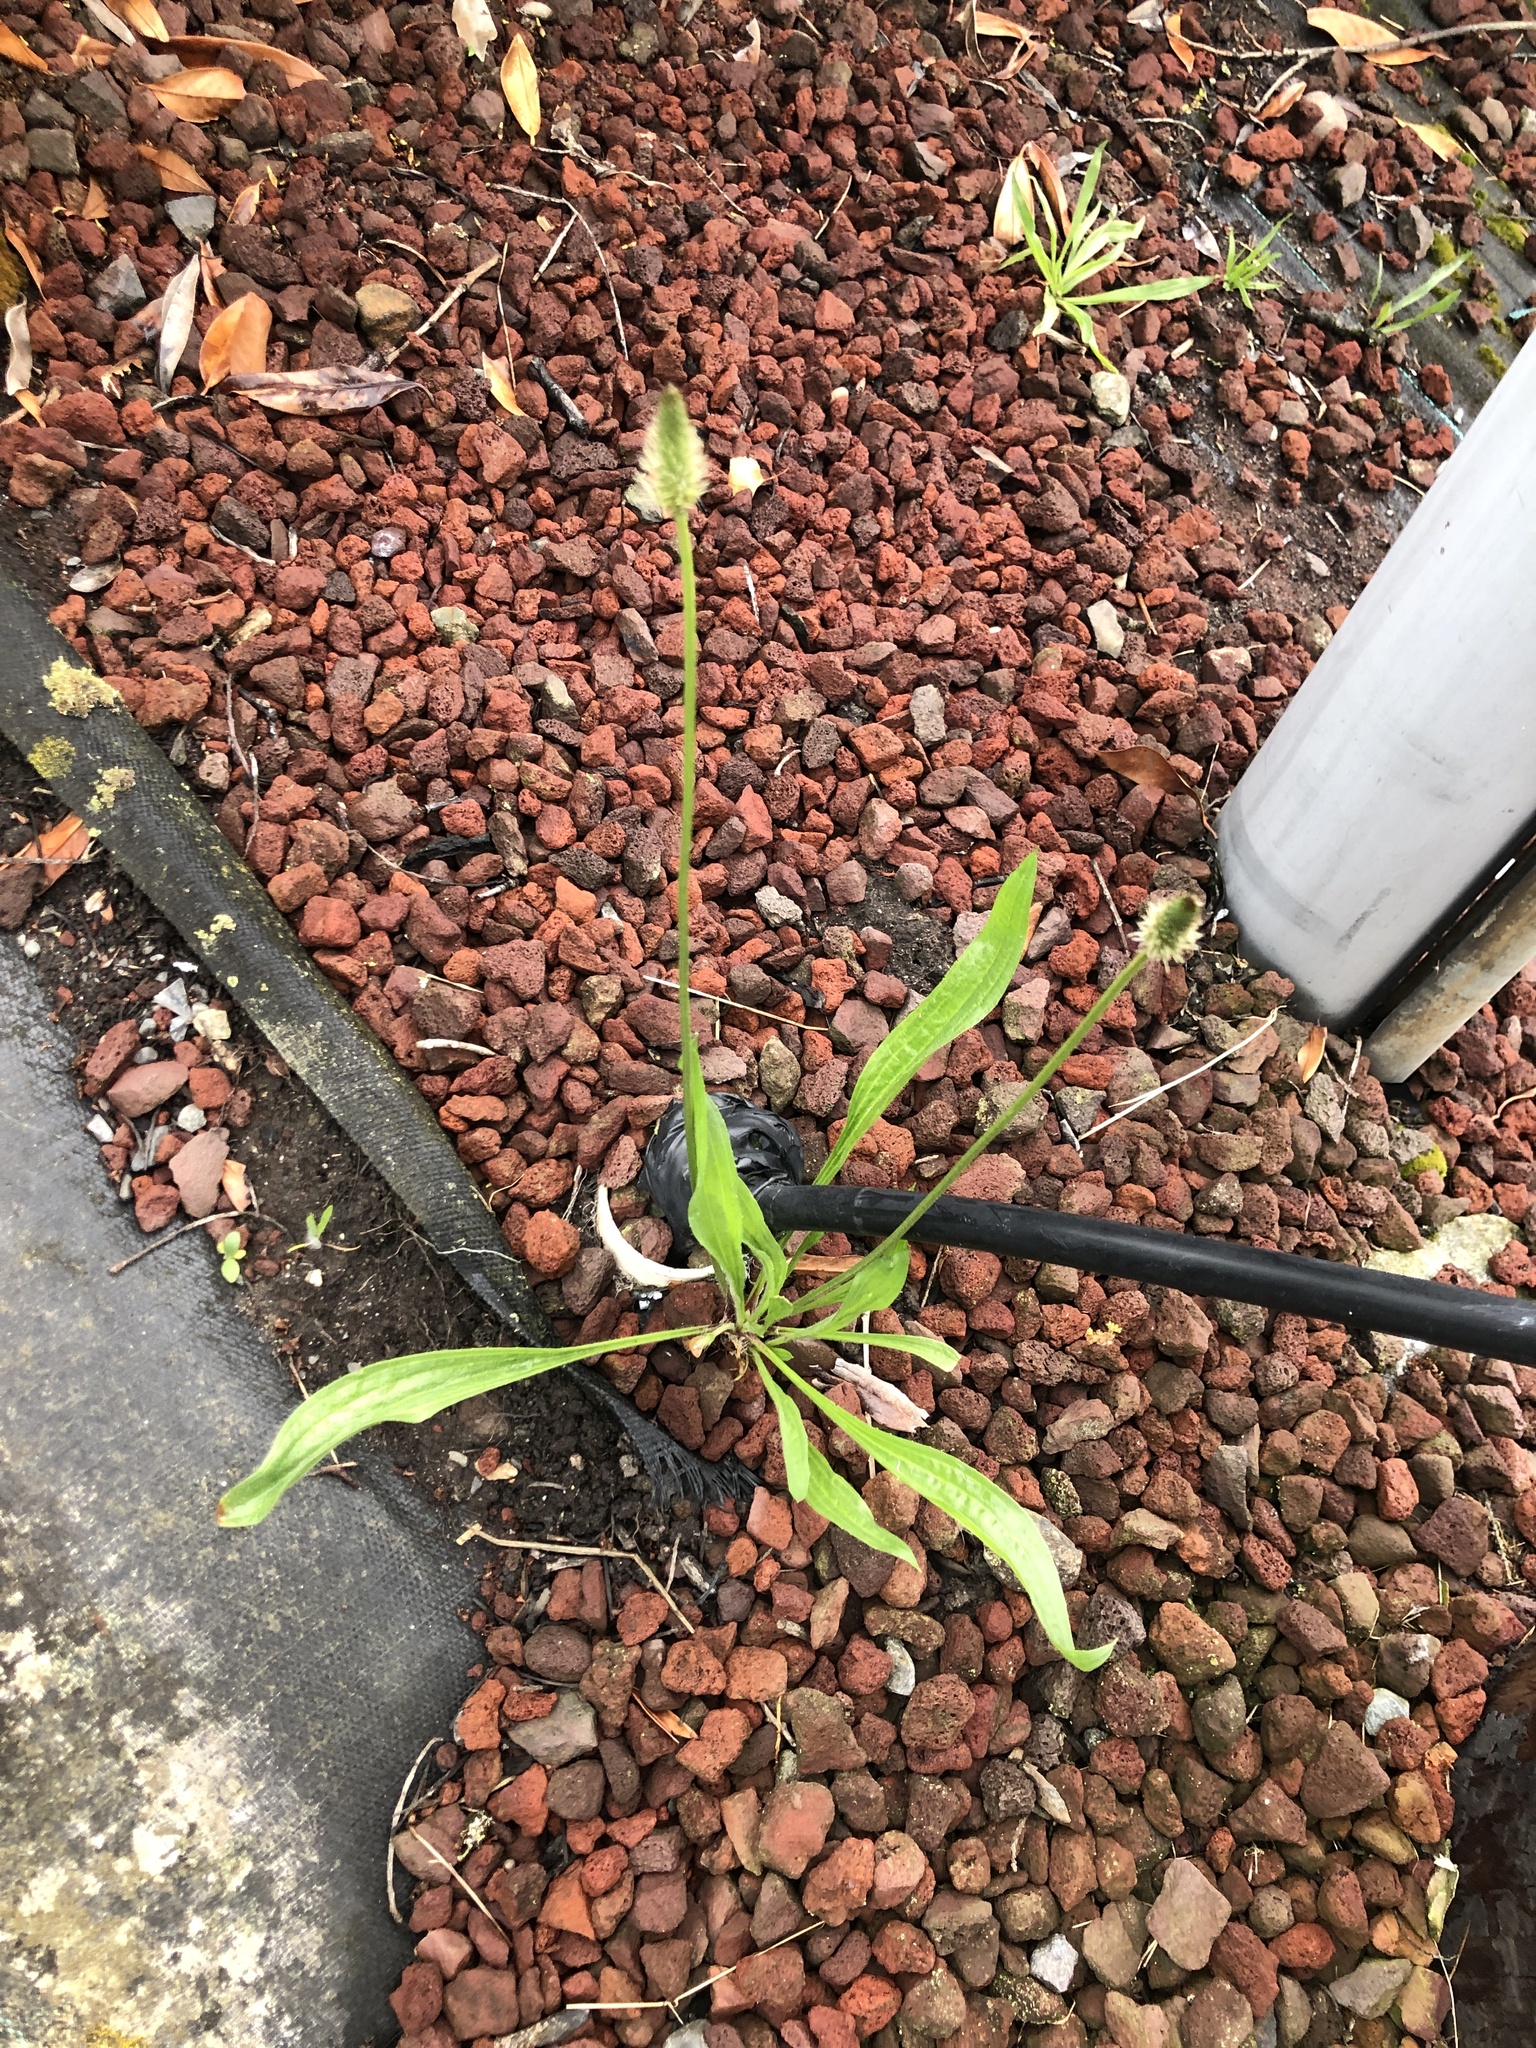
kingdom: Plantae
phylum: Tracheophyta
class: Magnoliopsida
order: Lamiales
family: Plantaginaceae
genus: Plantago
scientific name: Plantago lanceolata
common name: Ribwort plantain
